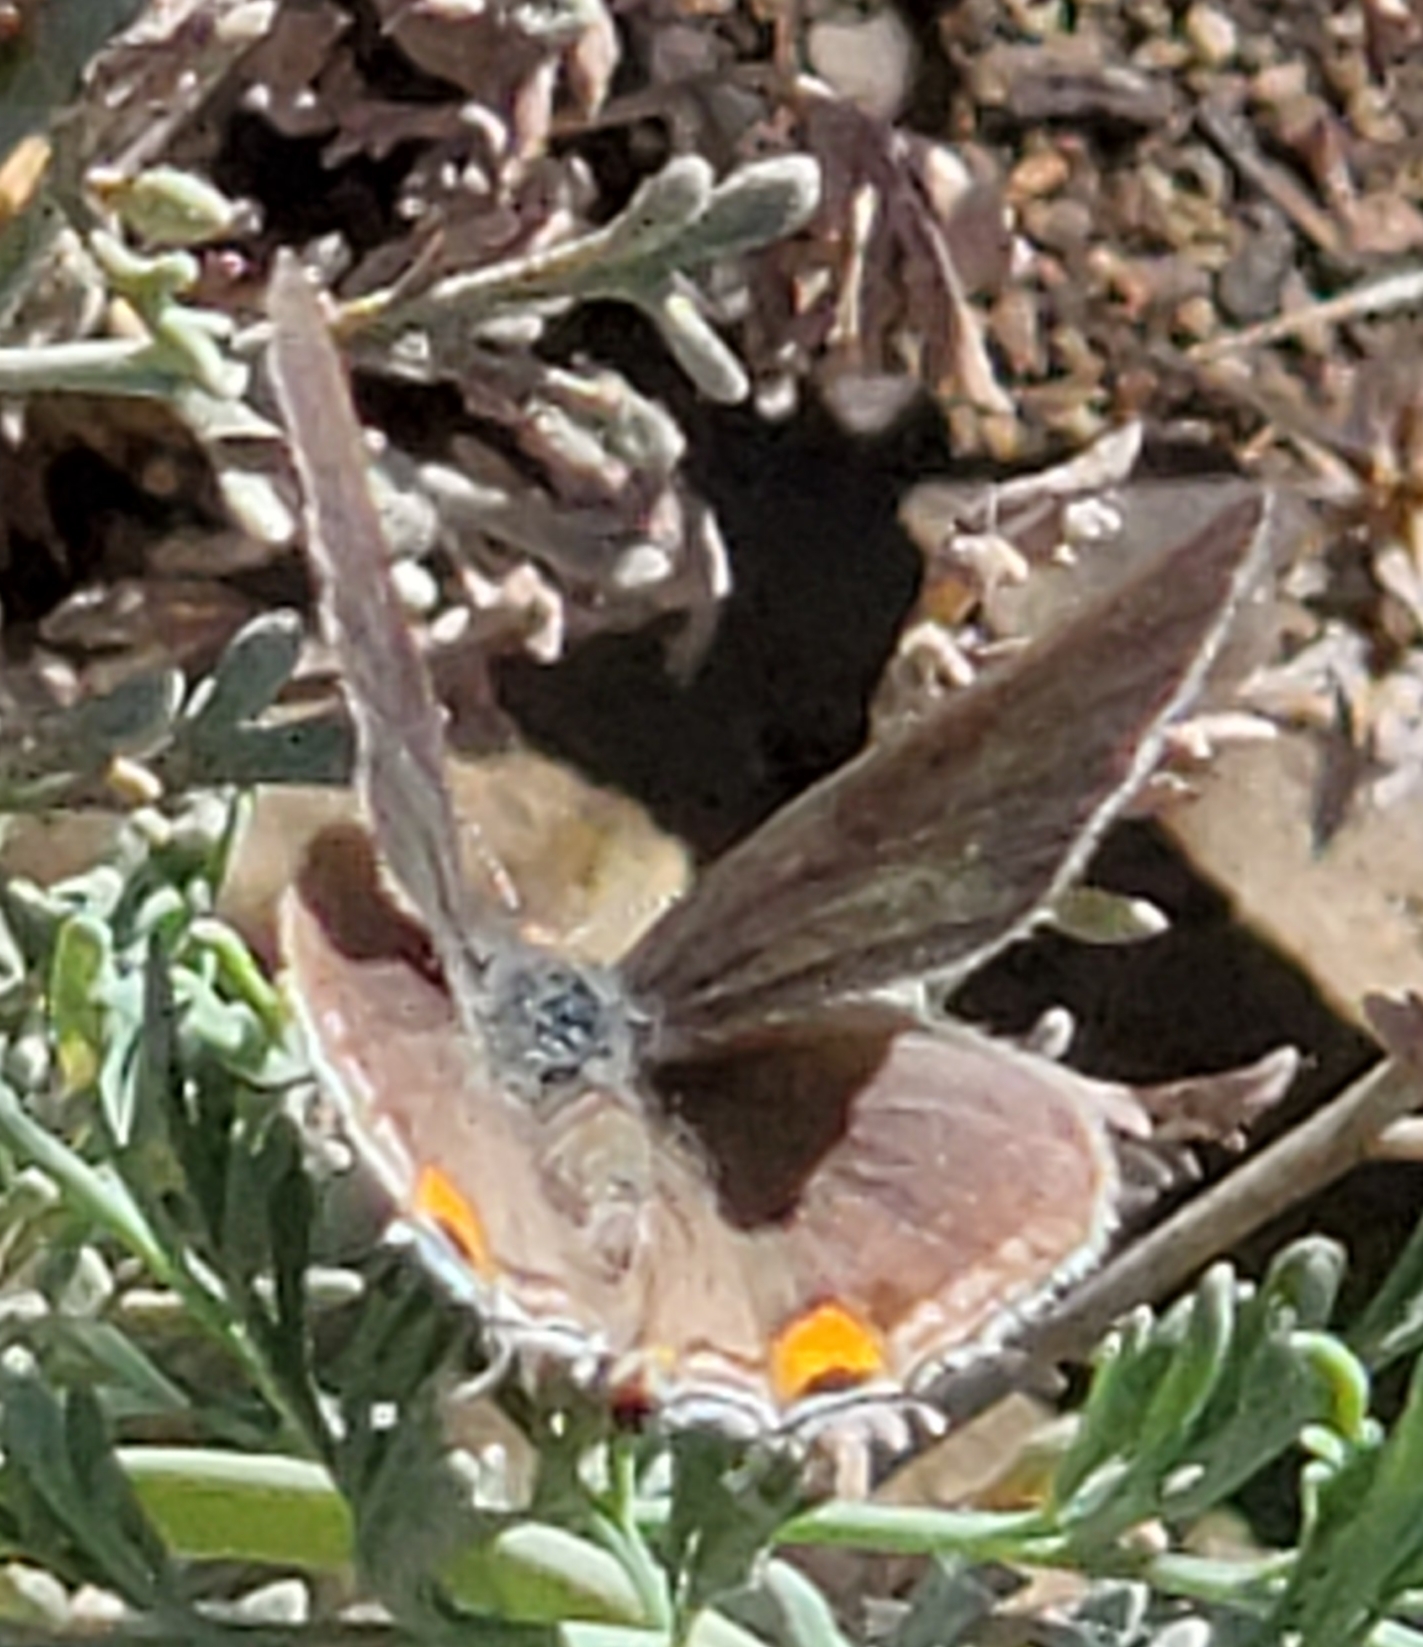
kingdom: Animalia
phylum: Arthropoda
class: Insecta
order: Lepidoptera
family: Lycaenidae
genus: Strymon
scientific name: Strymon melinus
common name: Gray hairstreak
